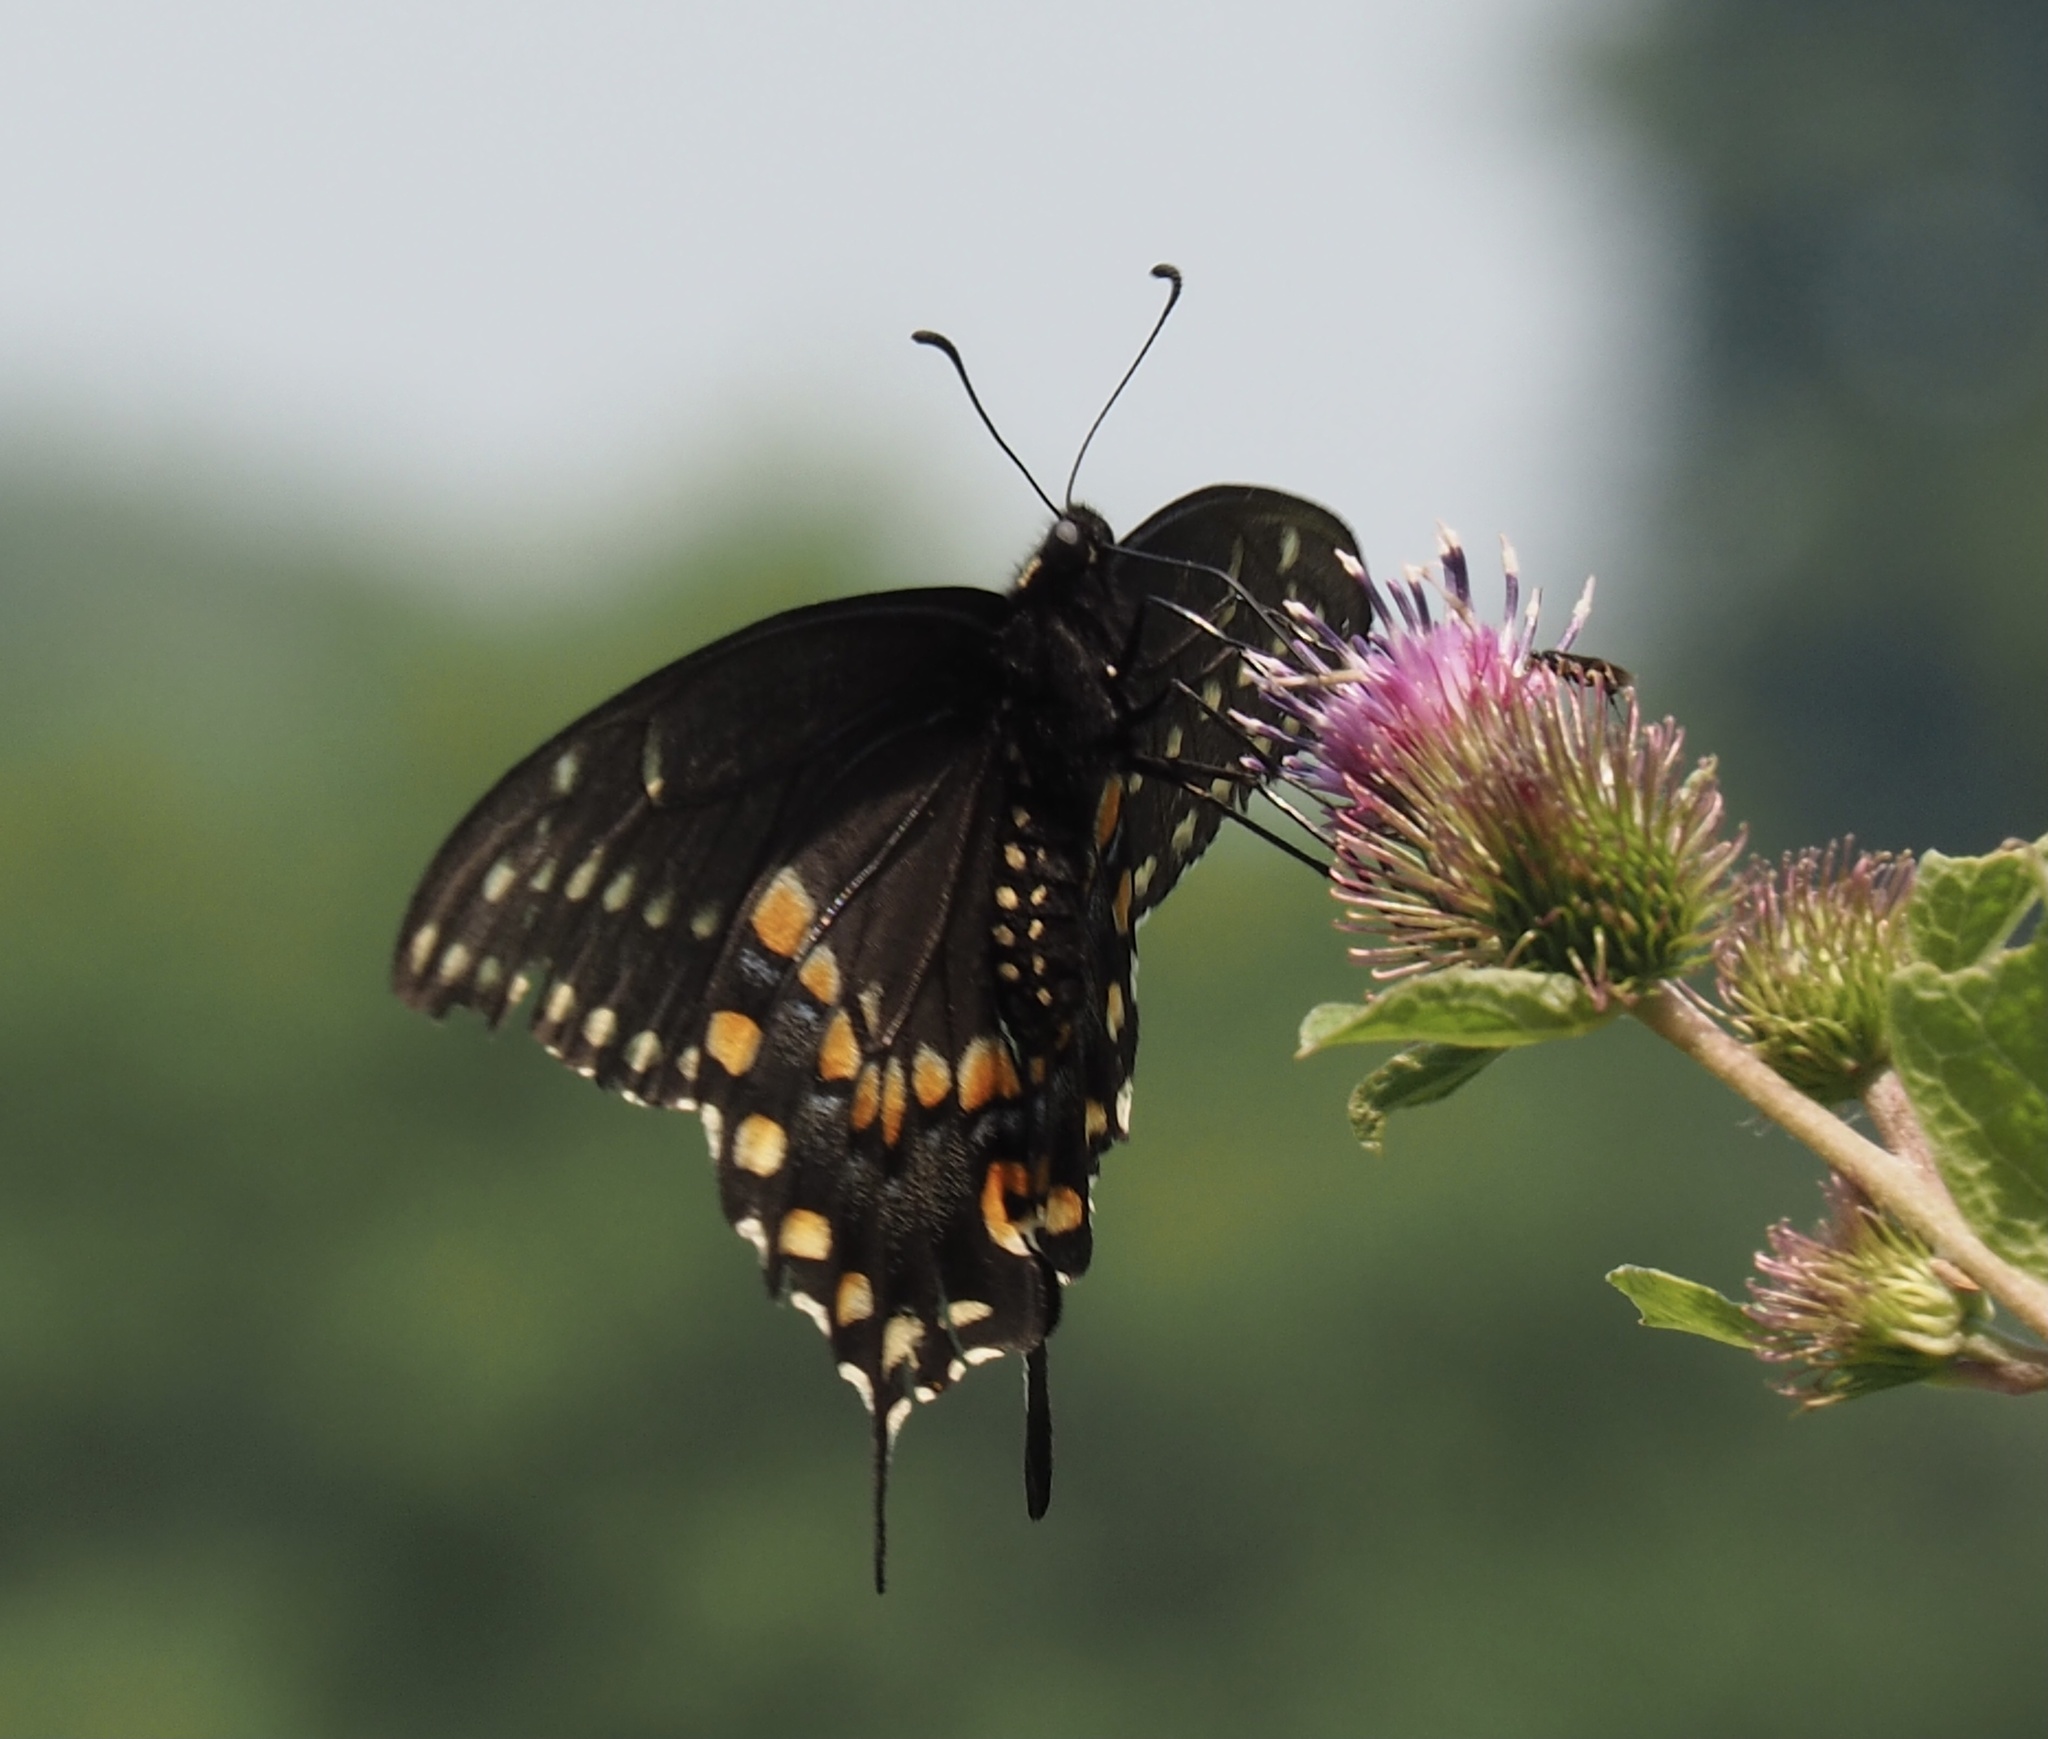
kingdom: Animalia
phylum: Arthropoda
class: Insecta
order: Lepidoptera
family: Papilionidae
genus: Papilio
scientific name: Papilio polyxenes
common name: Black swallowtail
